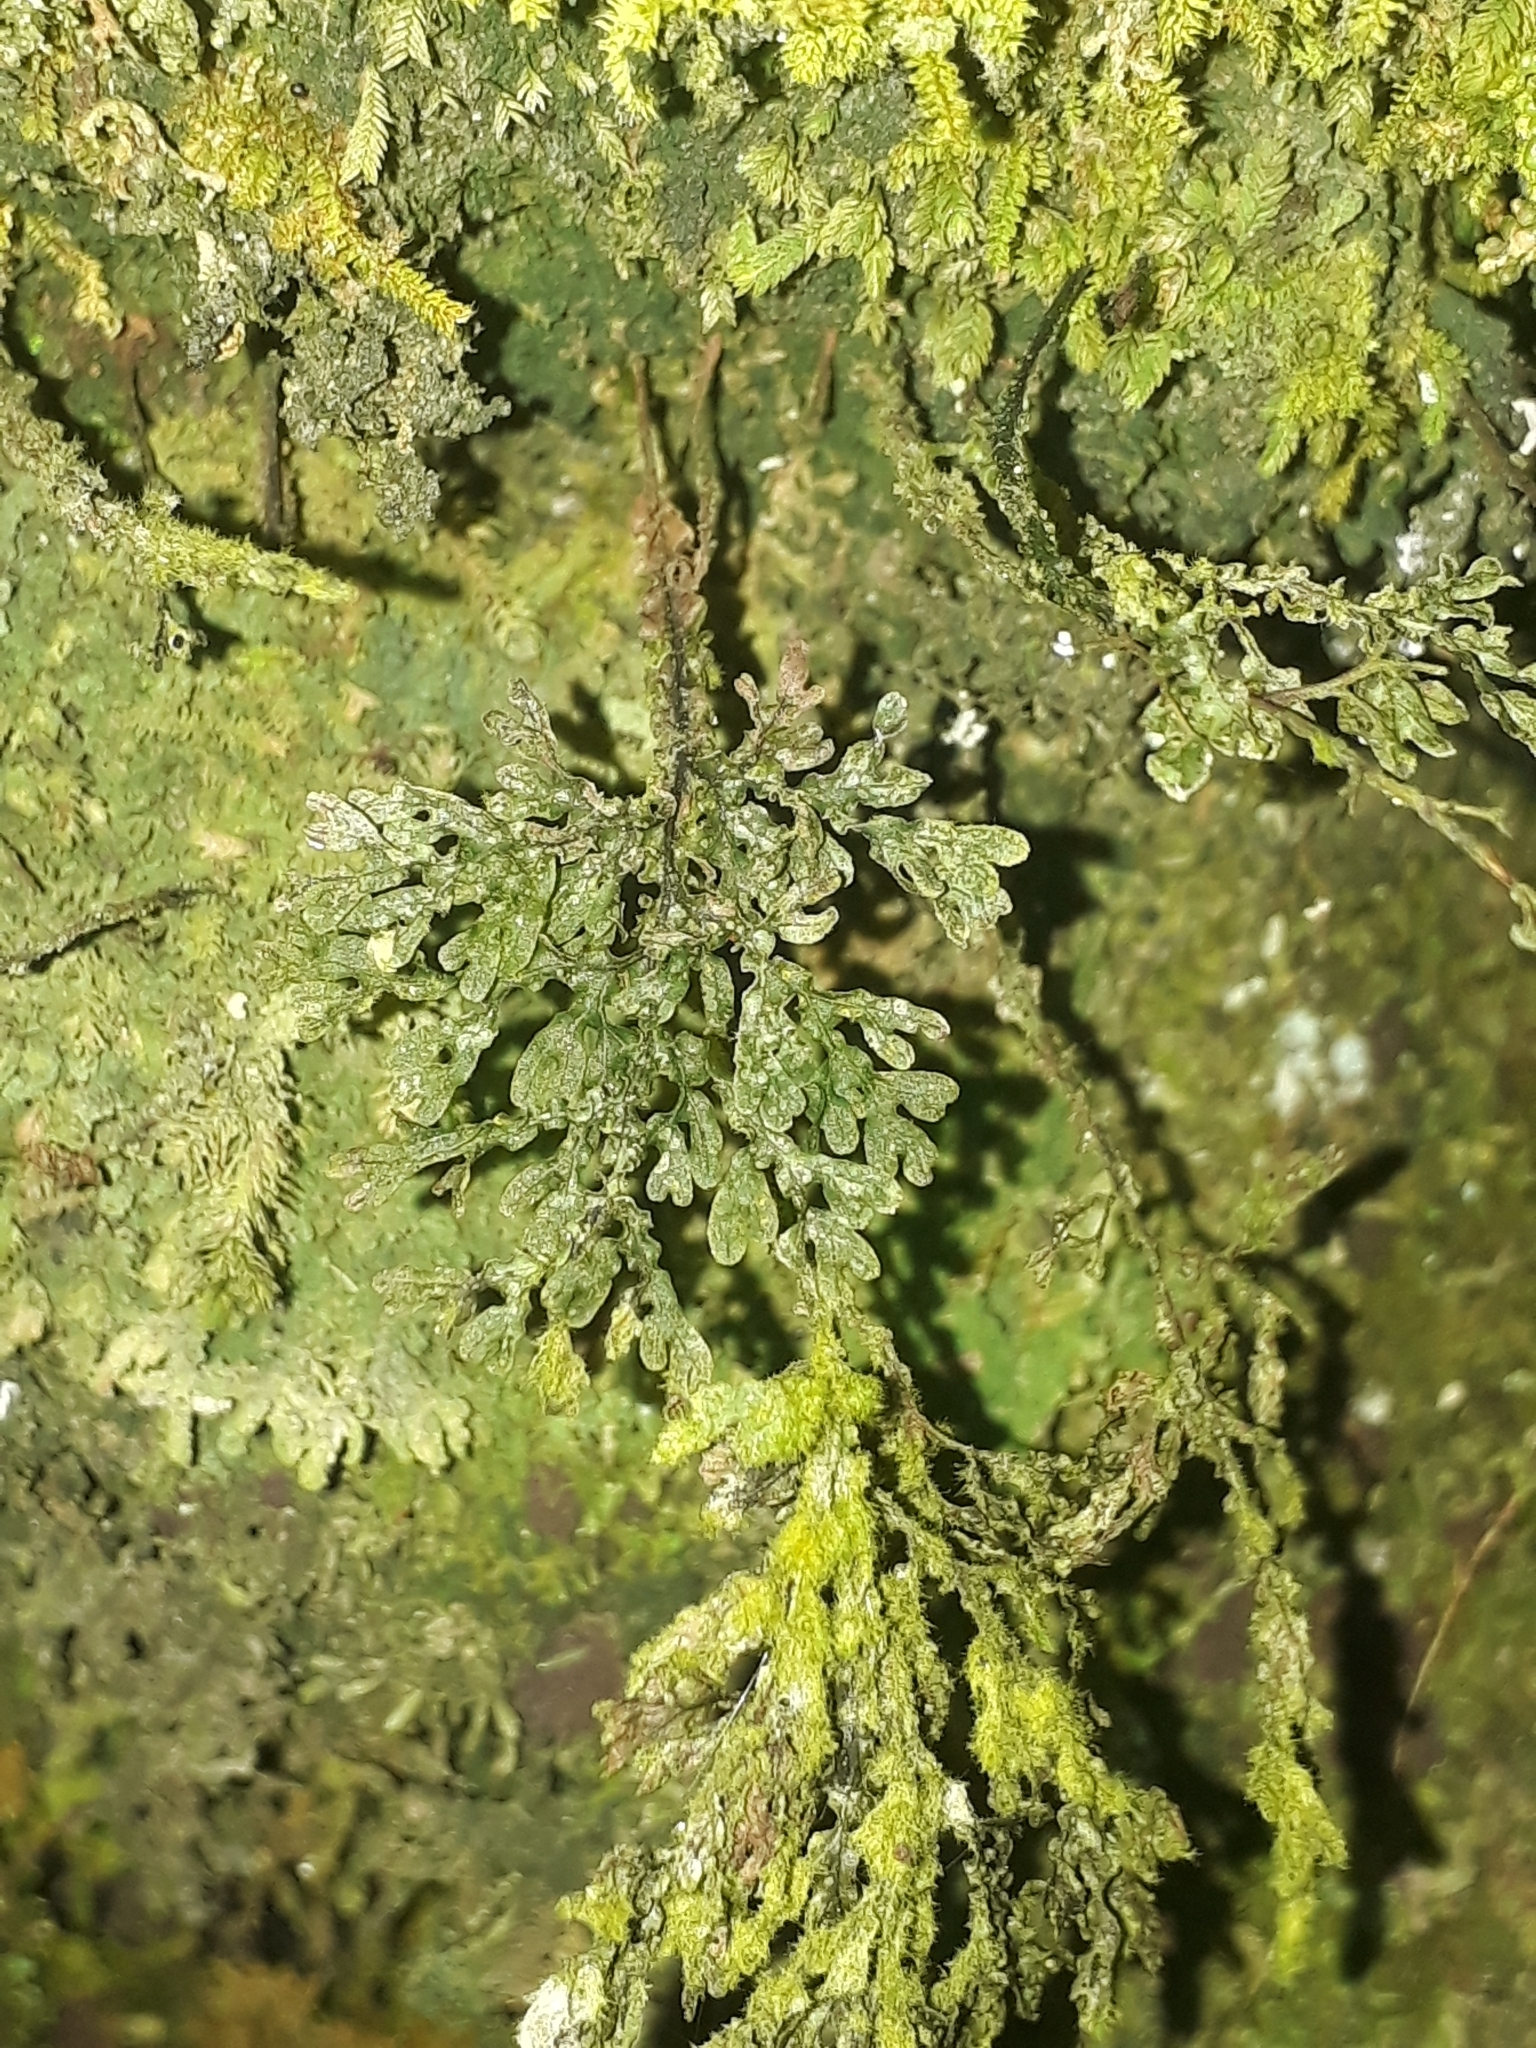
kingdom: Plantae
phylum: Tracheophyta
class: Polypodiopsida
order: Hymenophyllales
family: Hymenophyllaceae
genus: Hymenophyllum
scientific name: Hymenophyllum flexuosum
